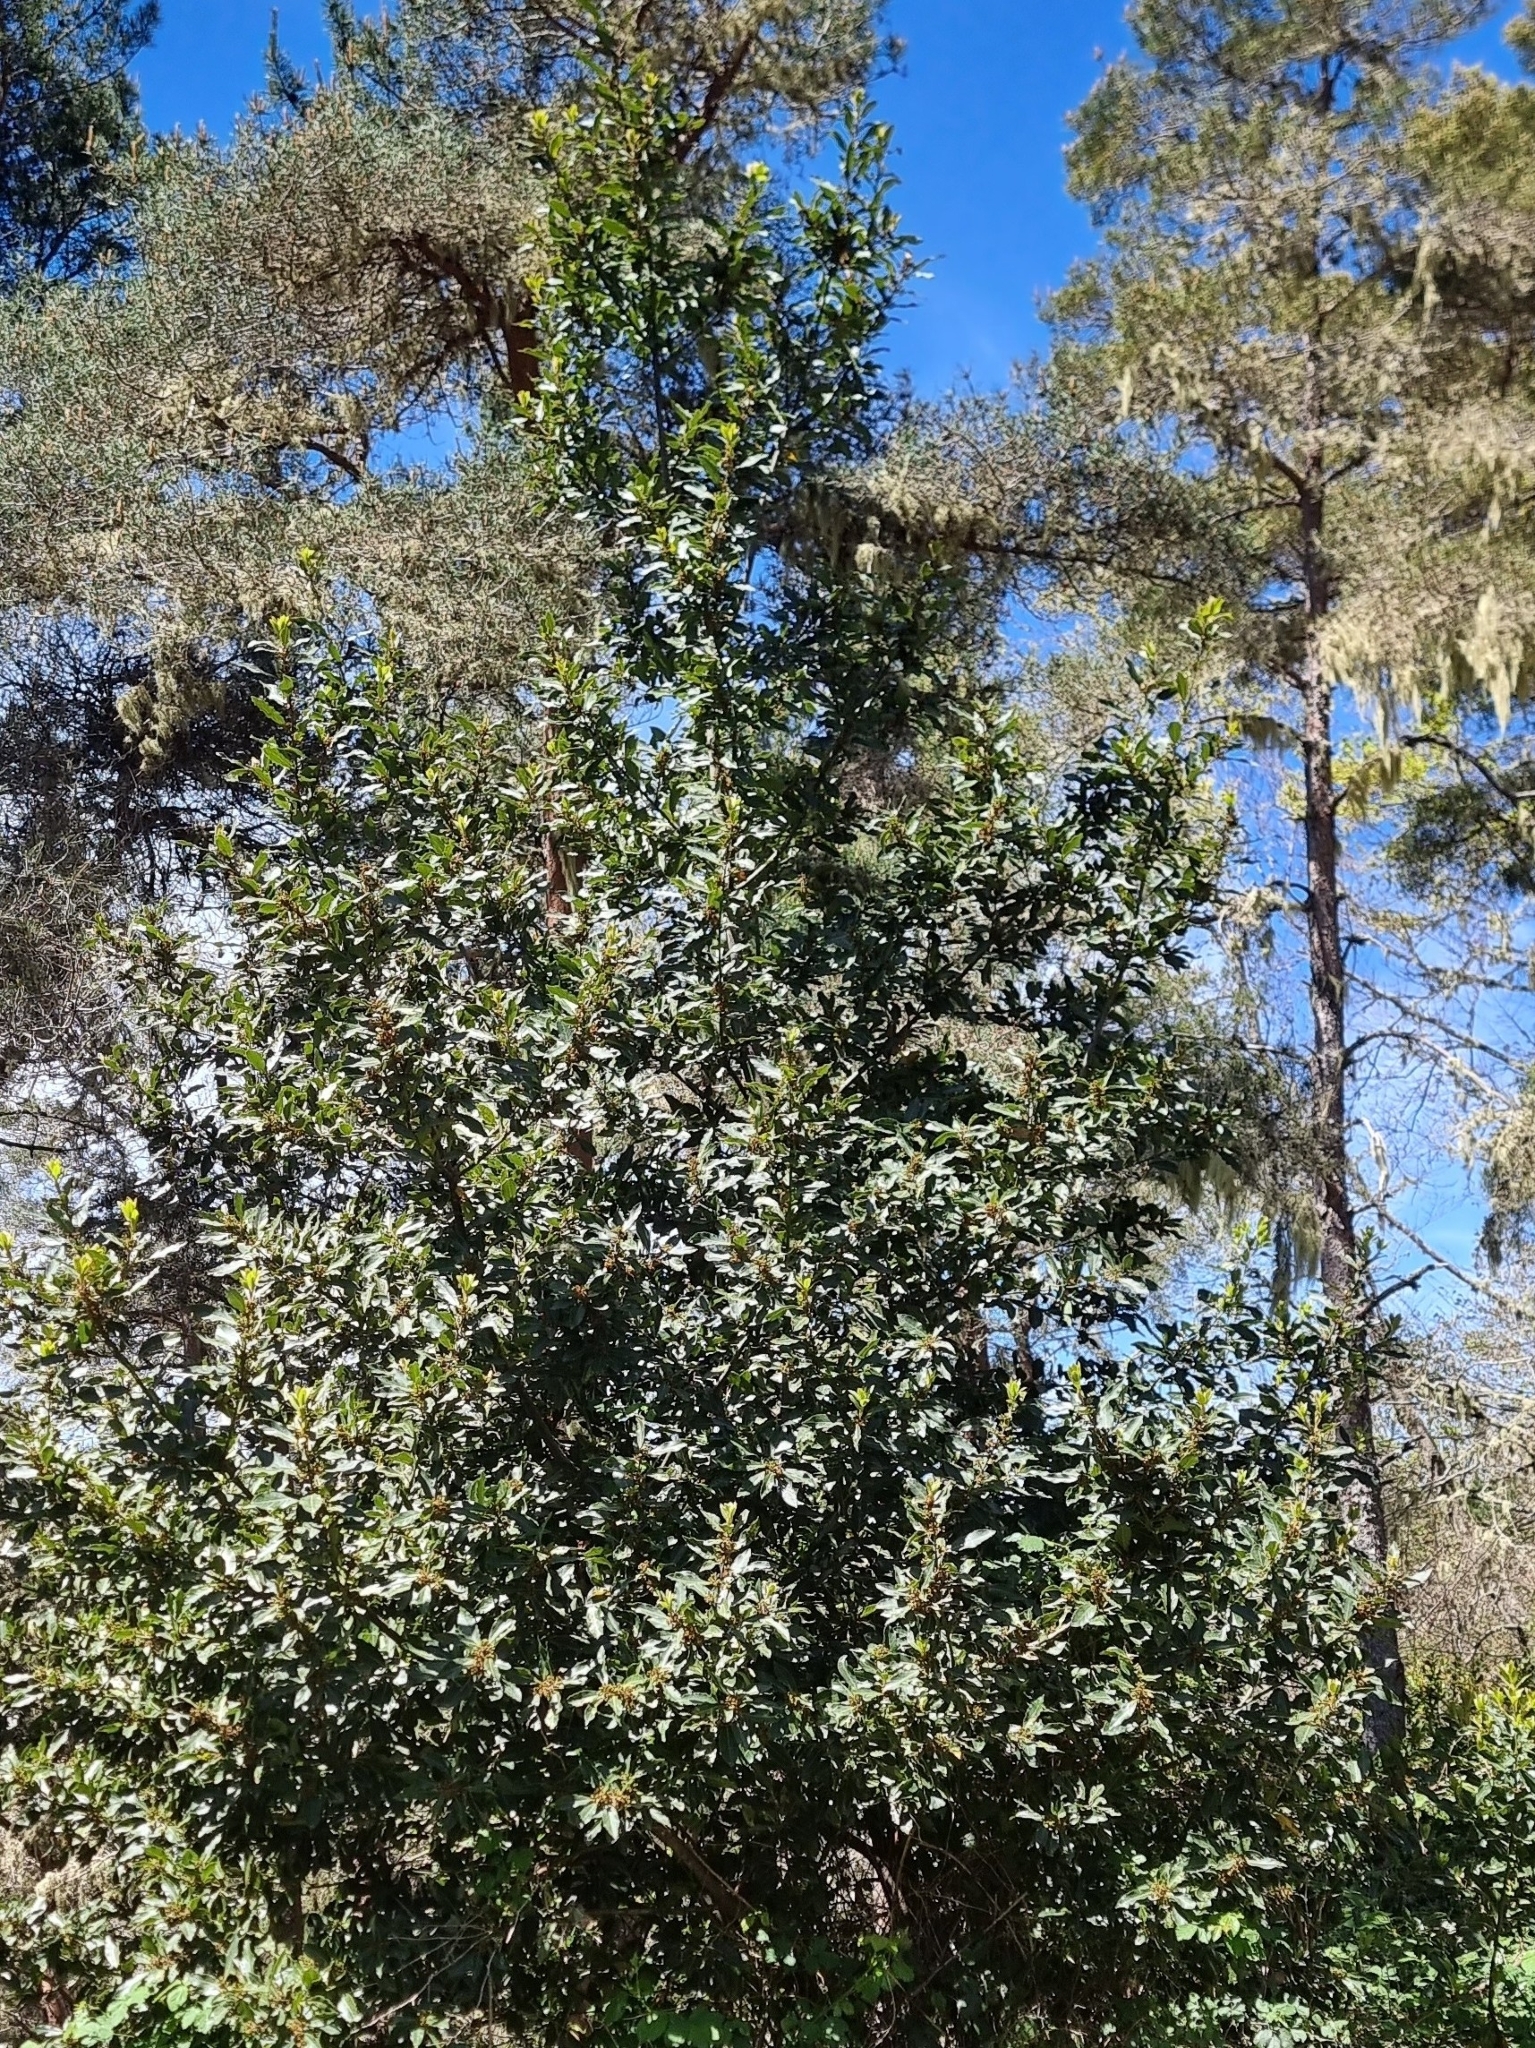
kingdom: Plantae
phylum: Tracheophyta
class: Magnoliopsida
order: Laurales
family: Lauraceae
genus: Laurus
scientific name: Laurus novocanariensis
